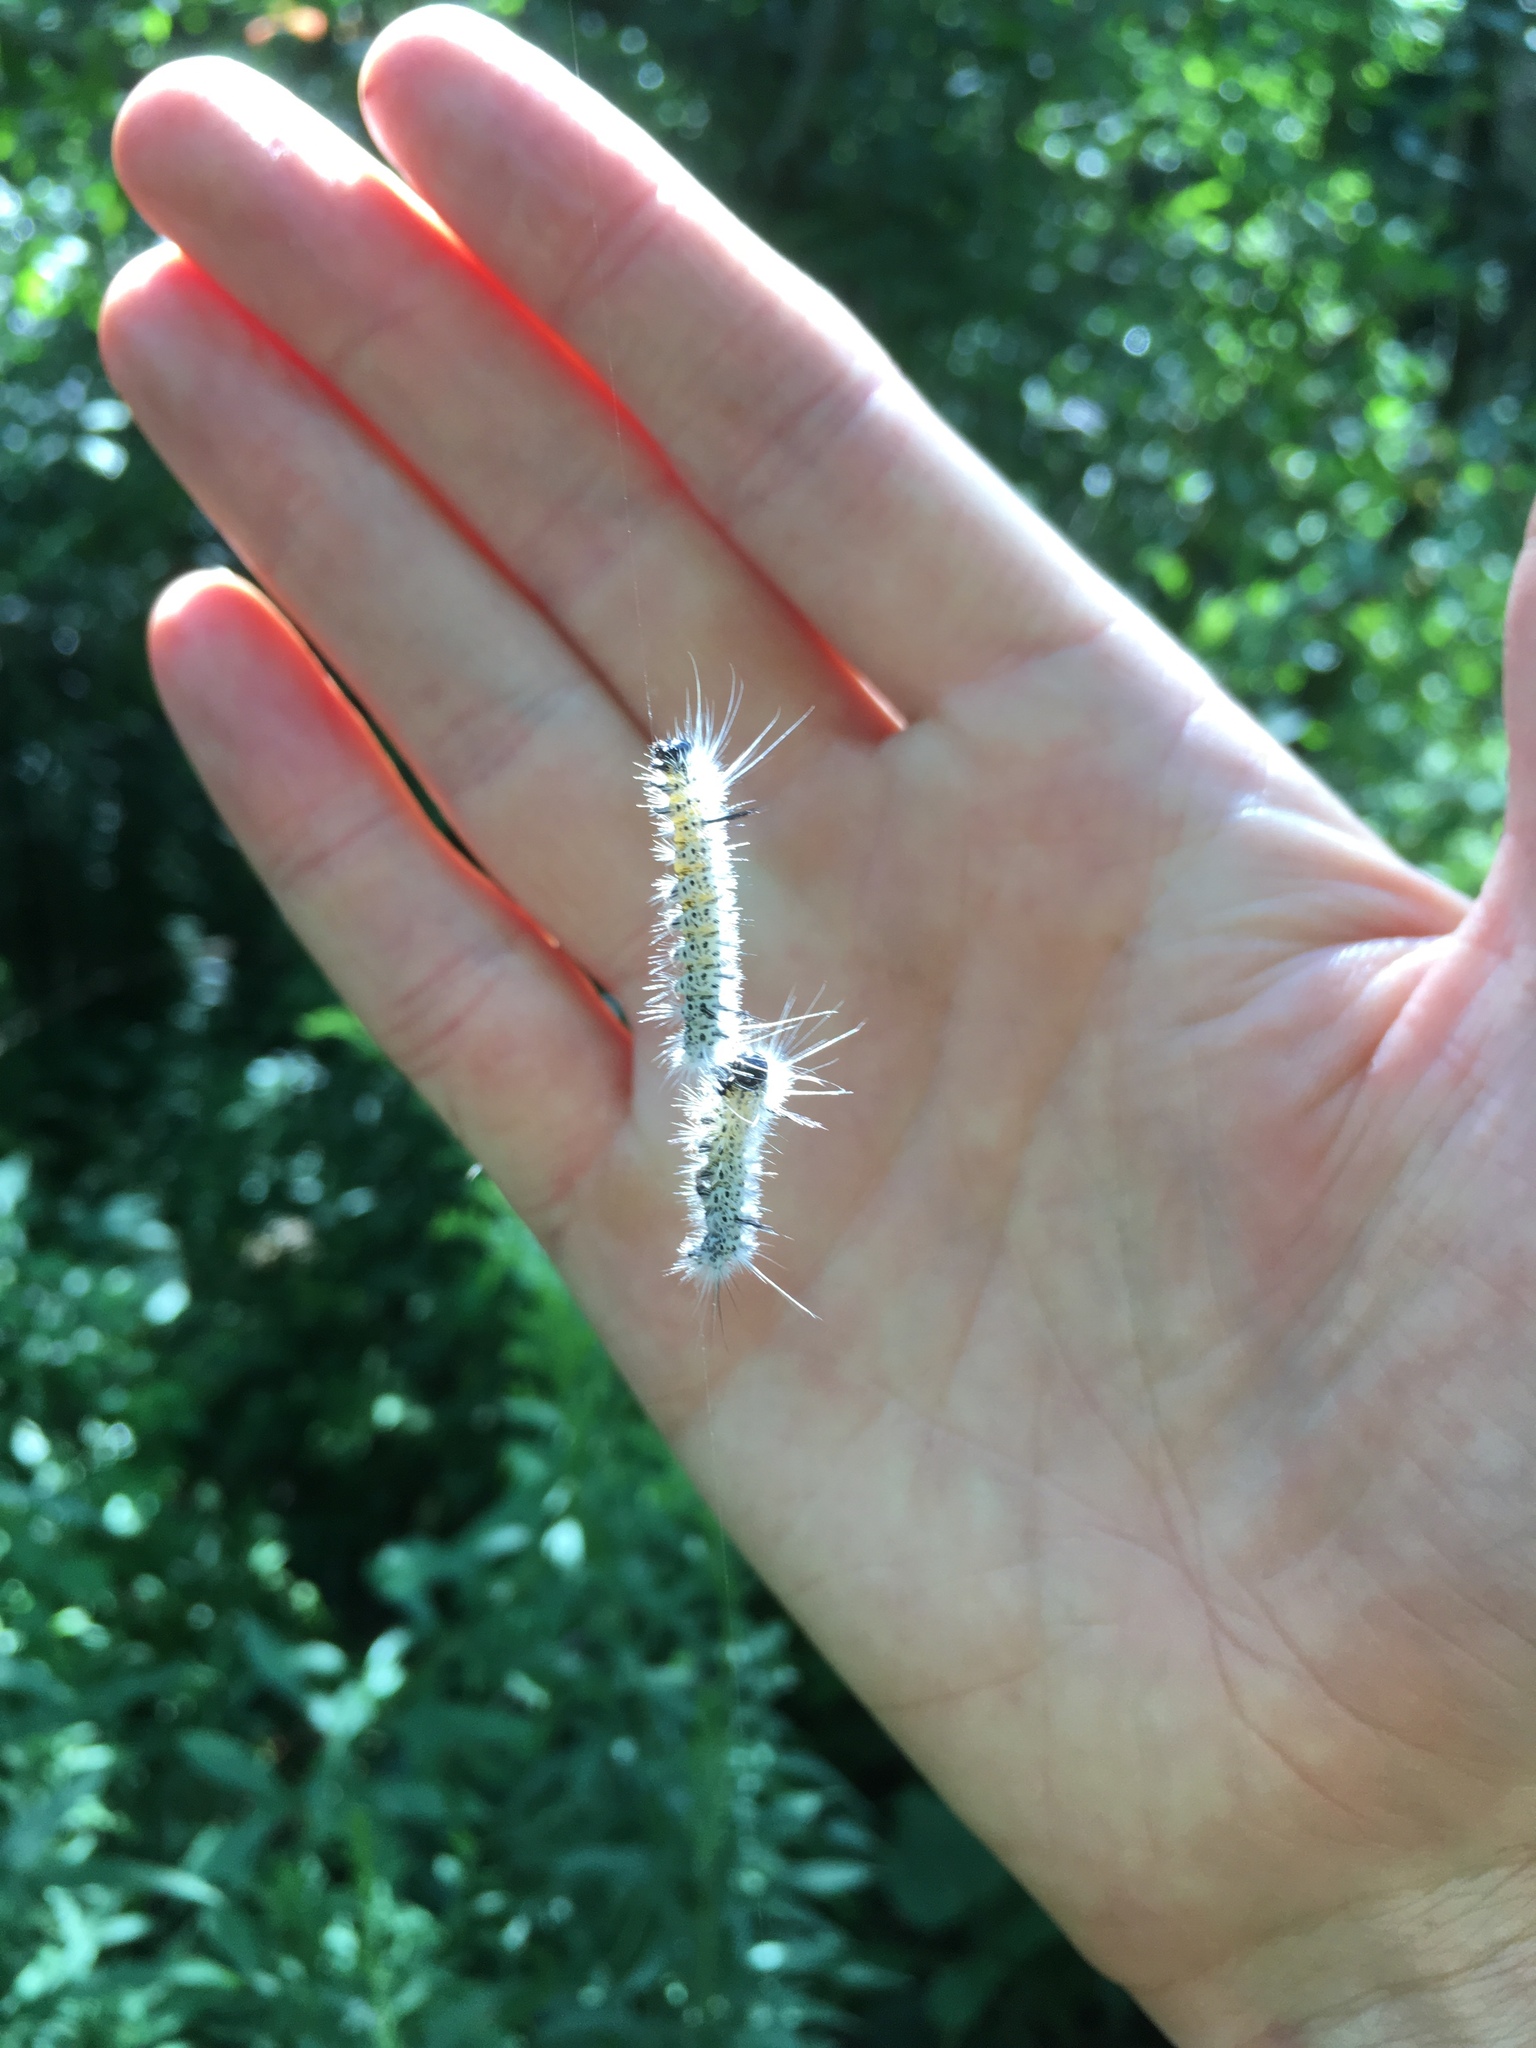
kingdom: Animalia
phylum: Arthropoda
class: Insecta
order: Lepidoptera
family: Erebidae
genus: Lophocampa
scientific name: Lophocampa caryae
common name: Hickory tussock moth
